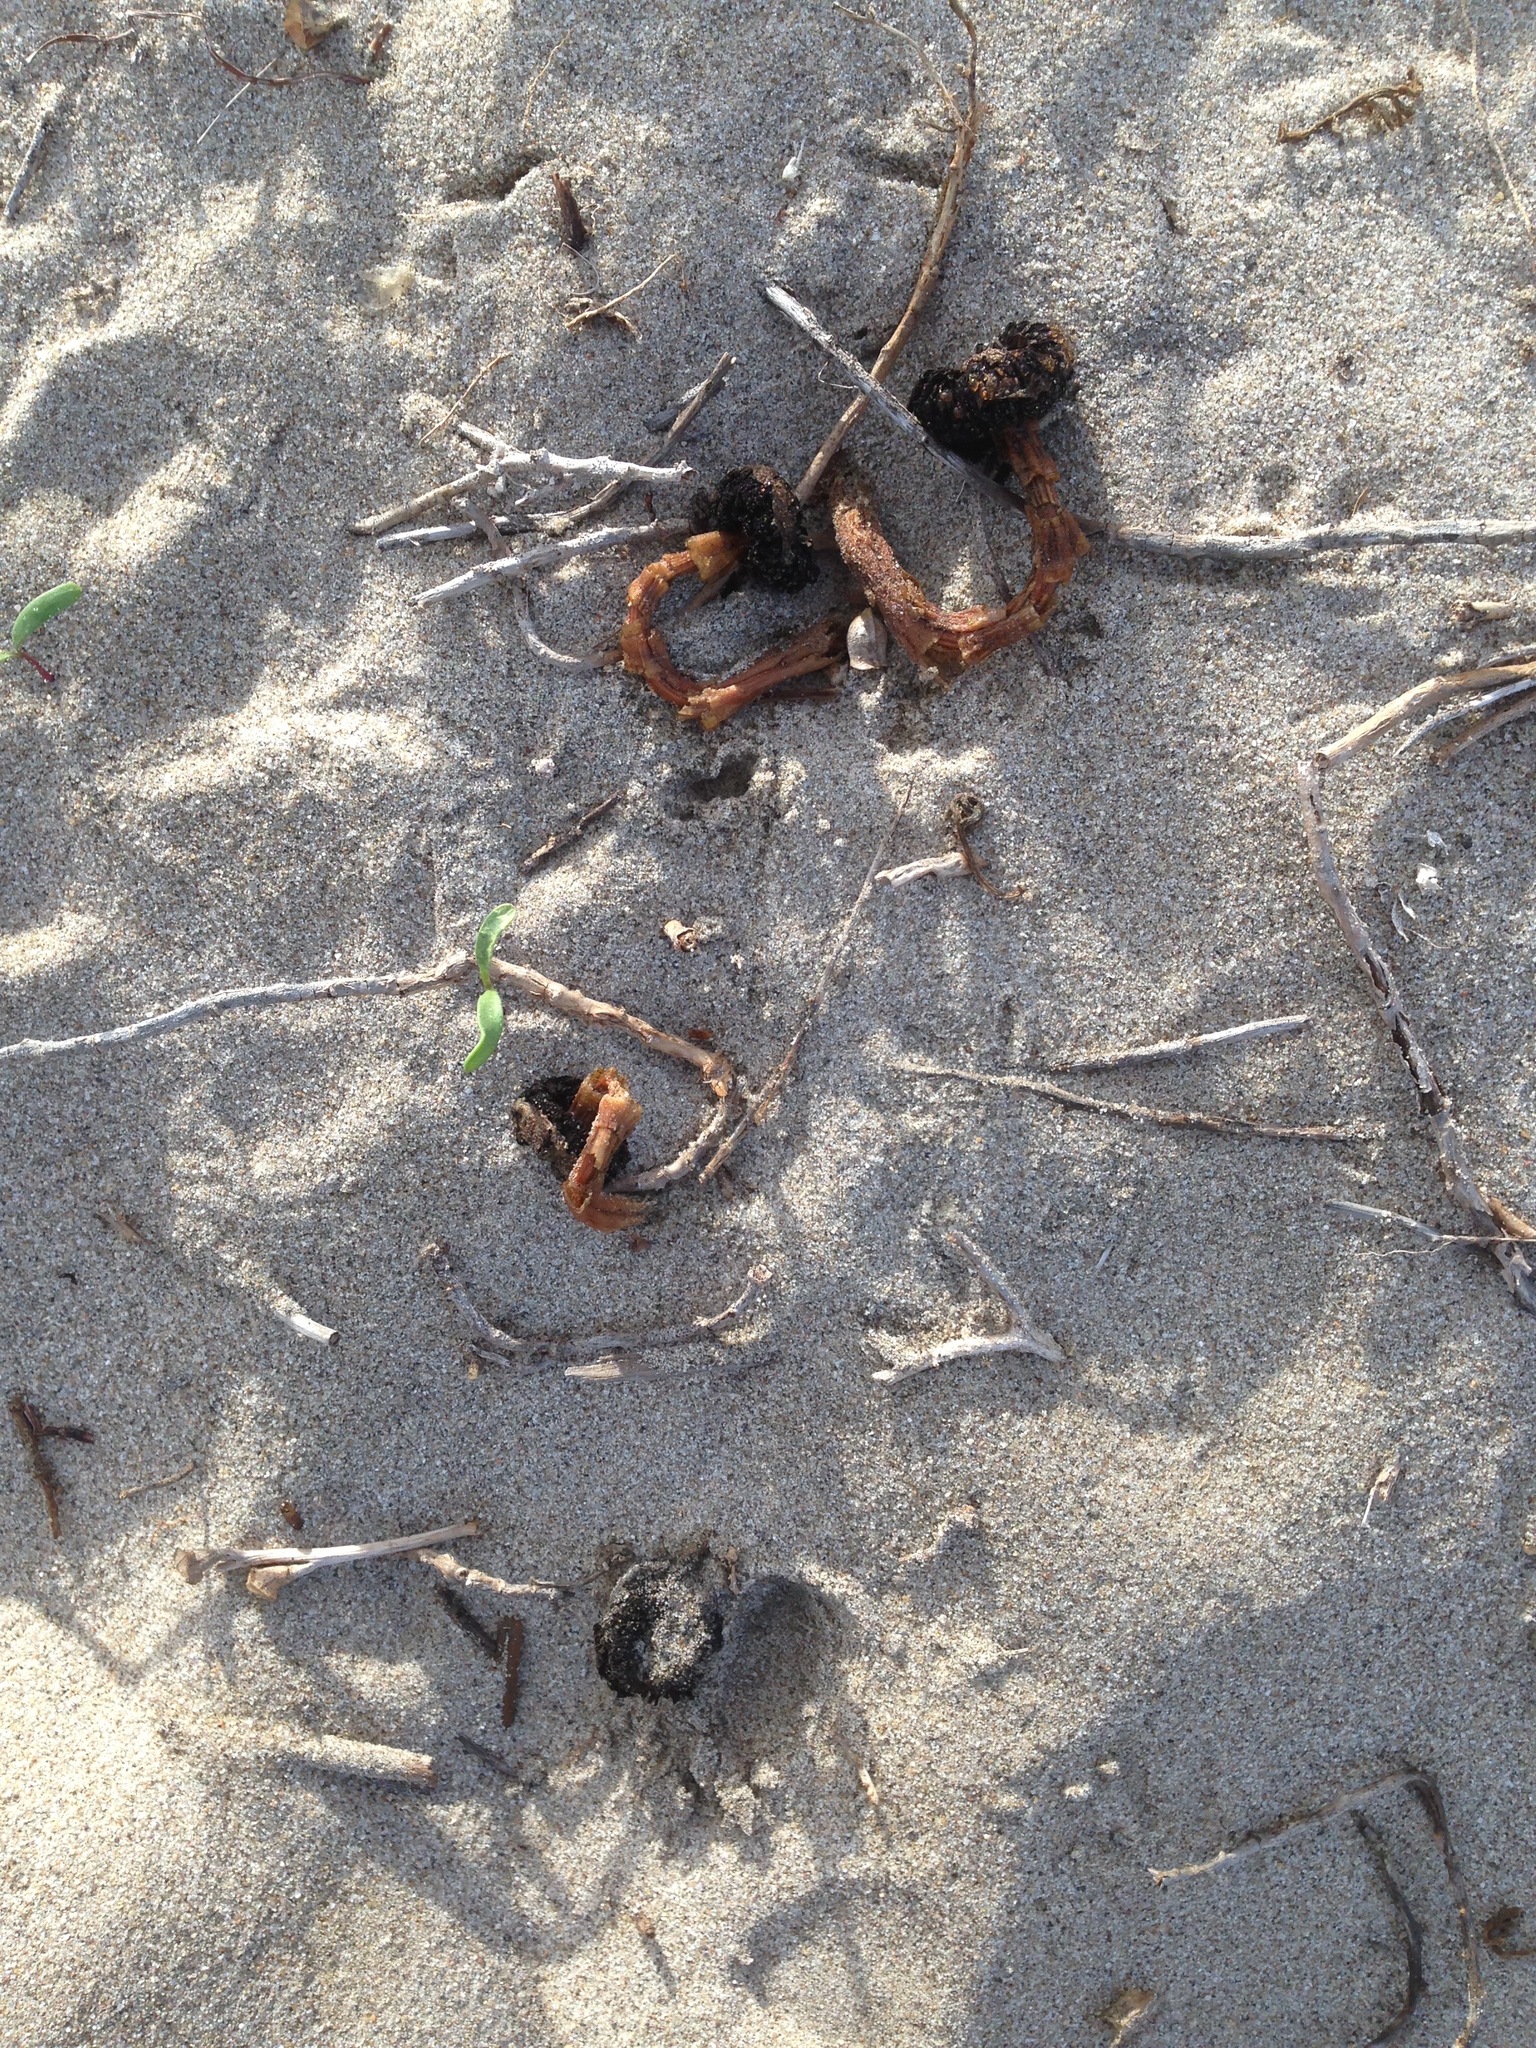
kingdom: Fungi
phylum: Basidiomycota
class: Agaricomycetes
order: Agaricales
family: Agaricaceae
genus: Agaricus
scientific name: Agaricus zelleri
